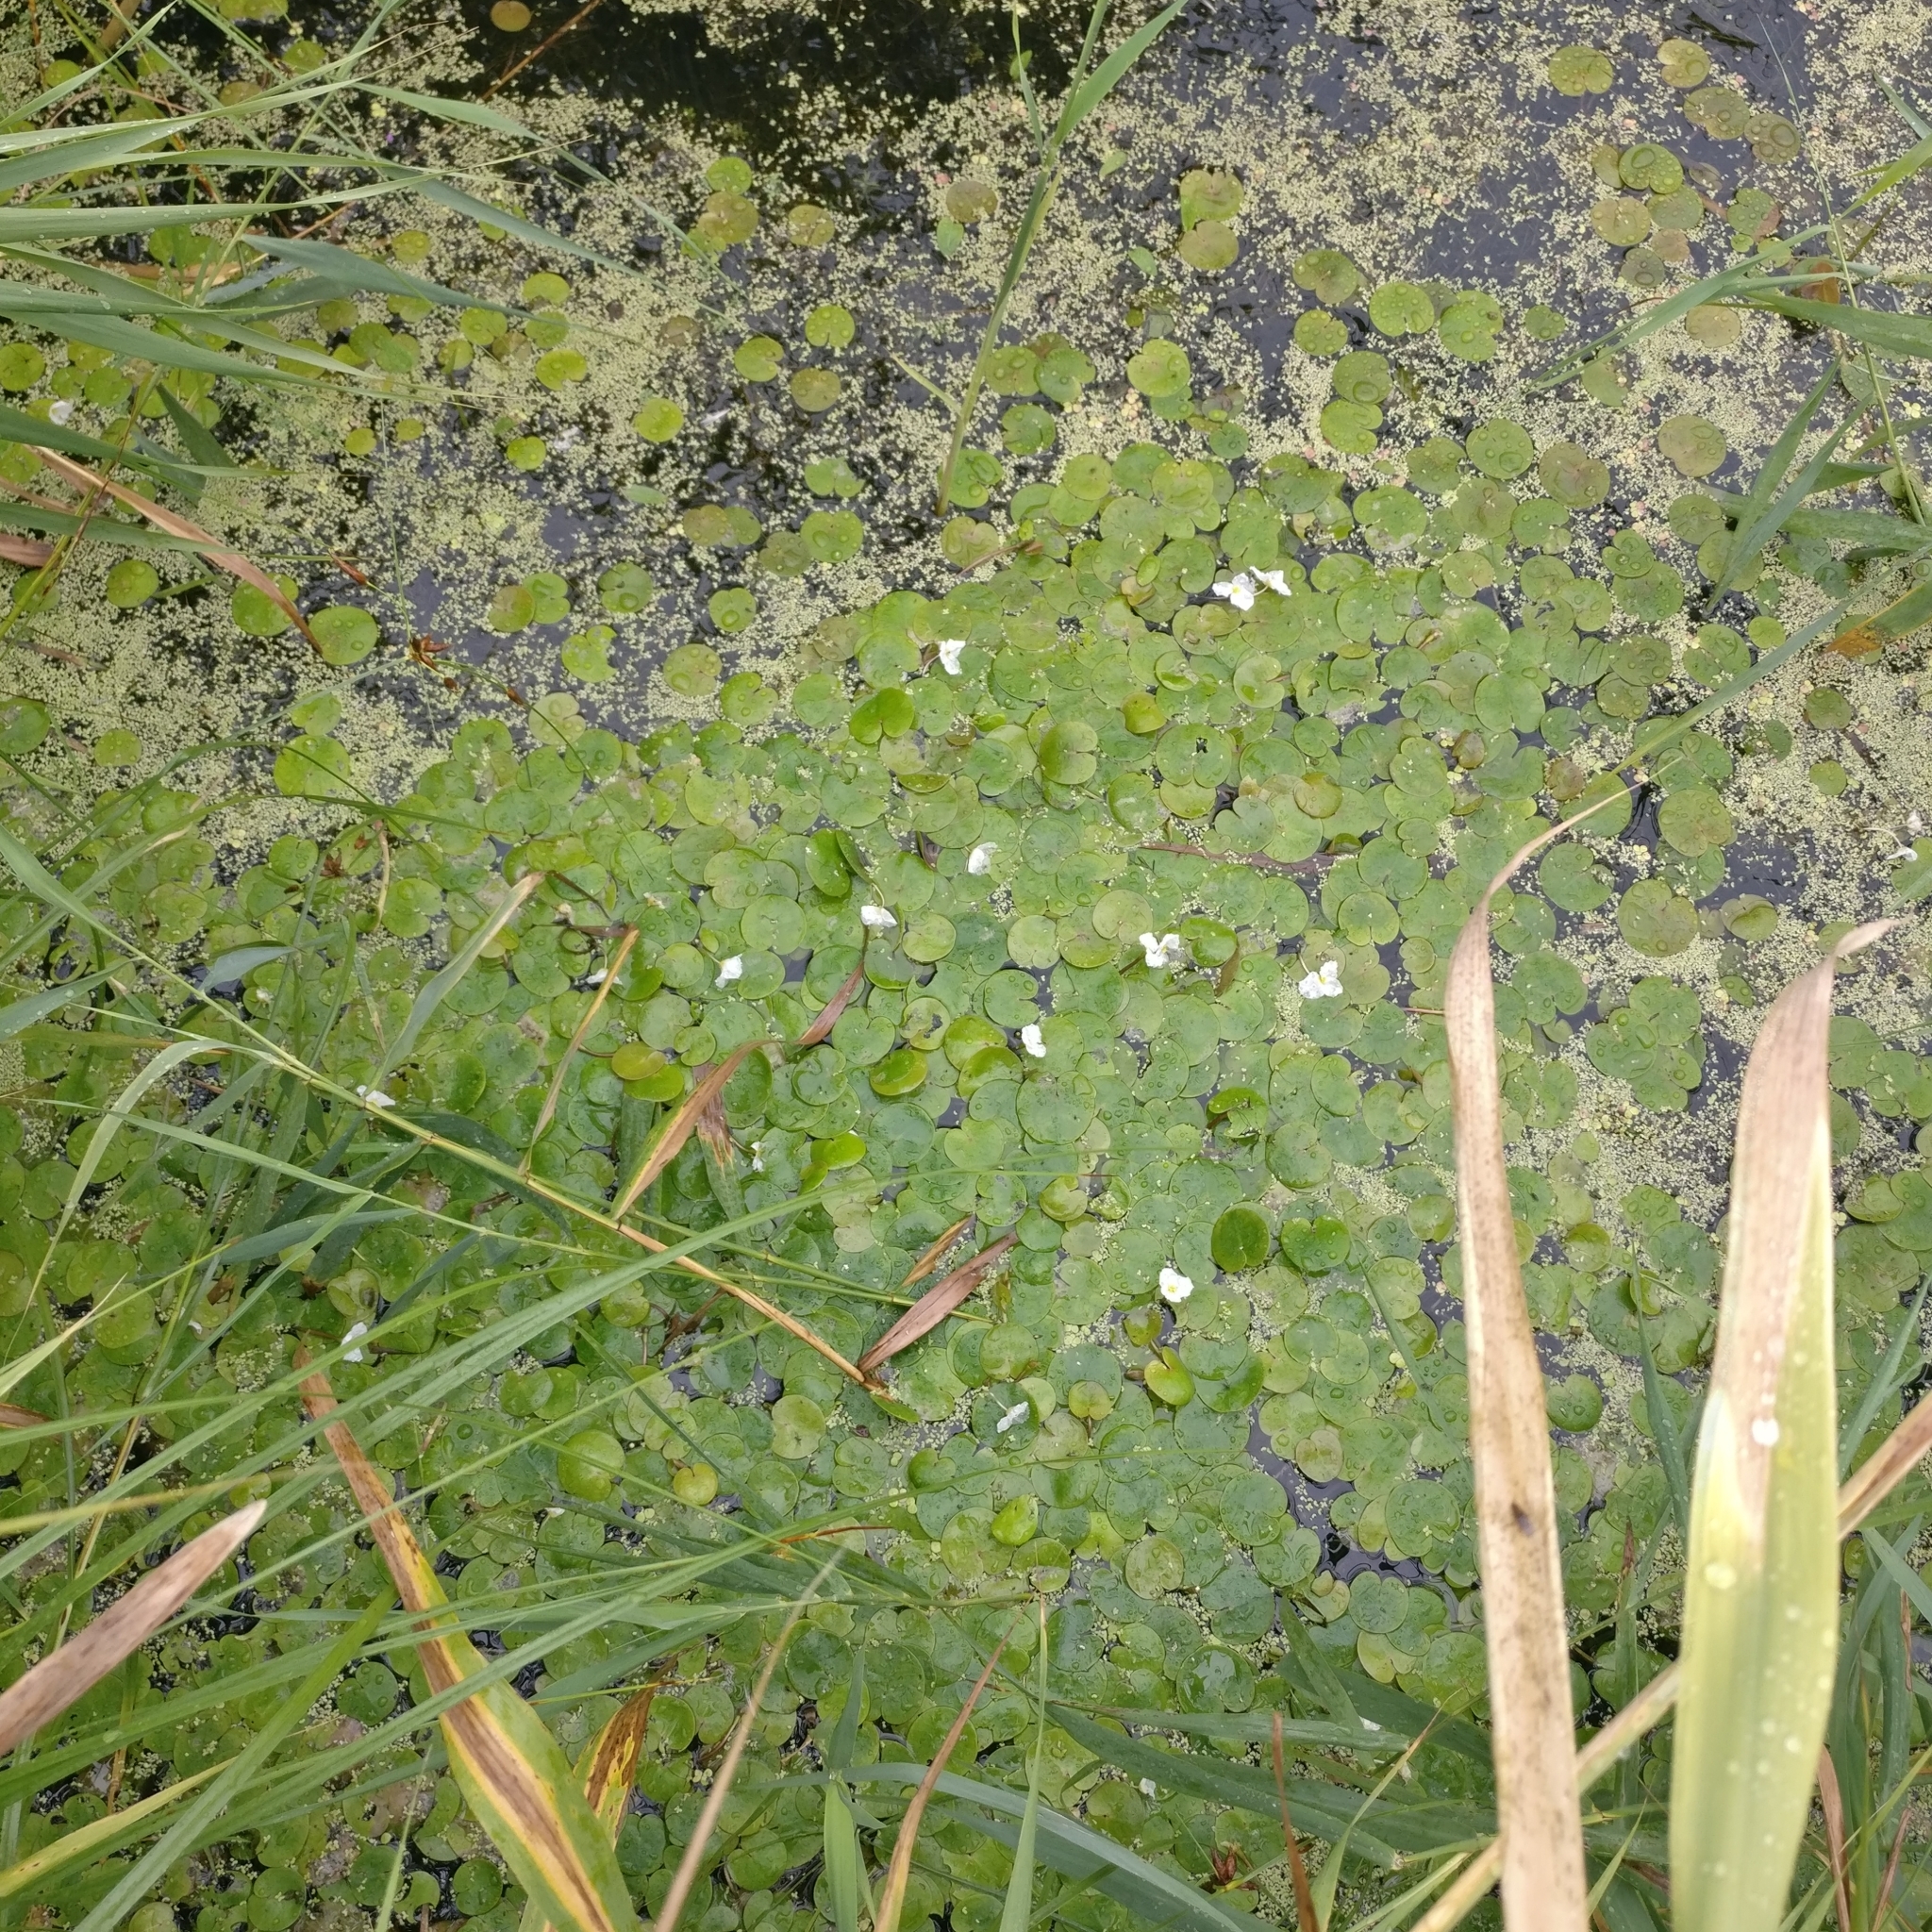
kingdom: Plantae
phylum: Tracheophyta
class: Liliopsida
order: Alismatales
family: Hydrocharitaceae
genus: Hydrocharis
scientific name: Hydrocharis morsus-ranae
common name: Frogbit
